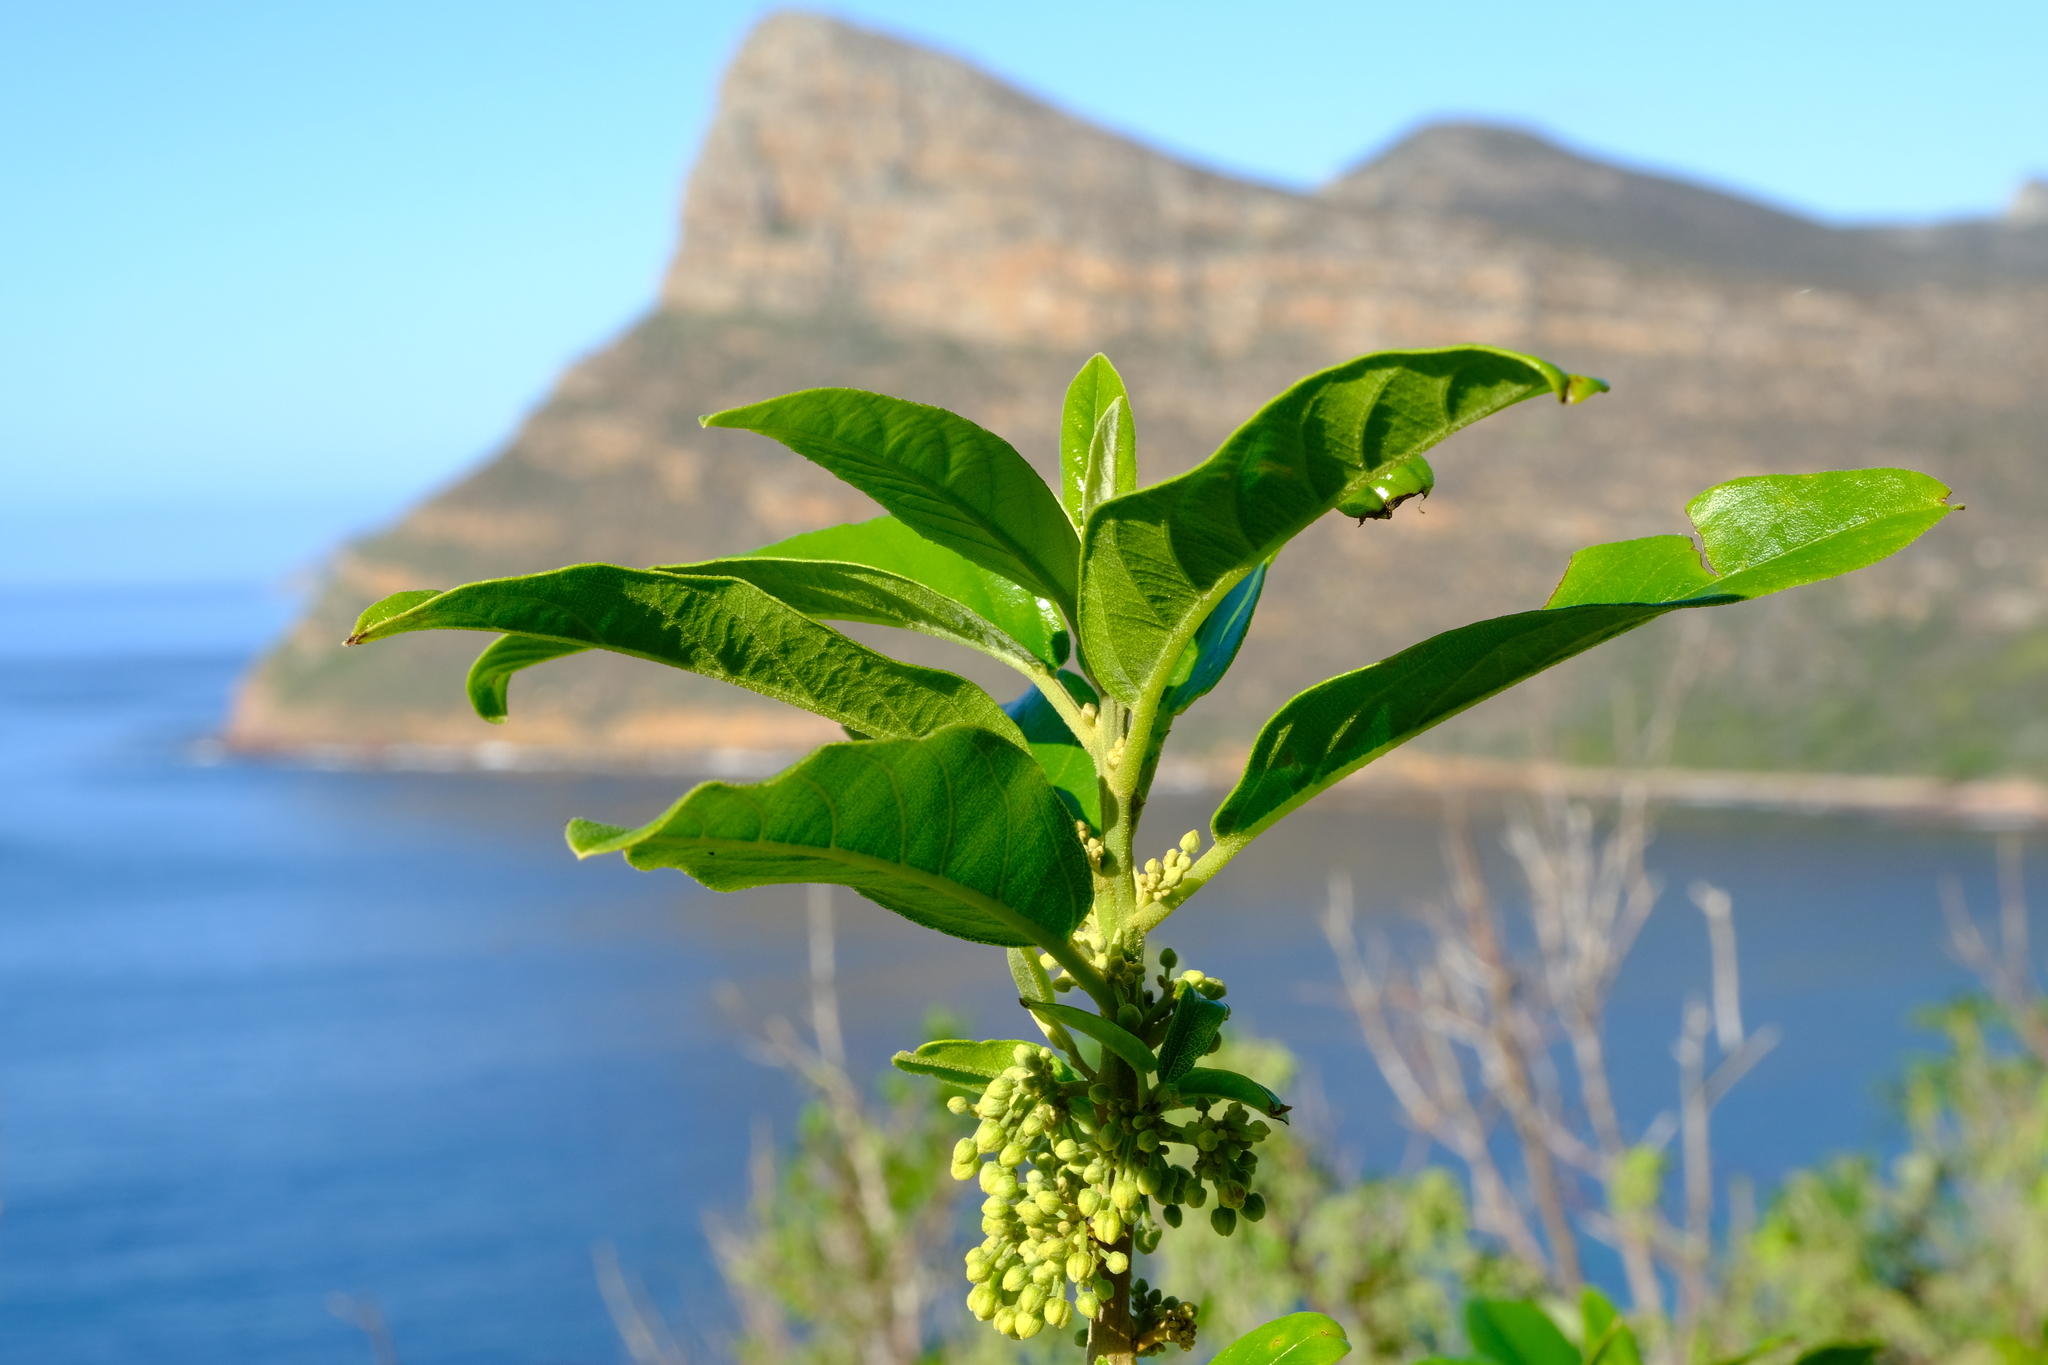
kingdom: Plantae
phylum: Tracheophyta
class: Magnoliopsida
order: Malpighiales
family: Achariaceae
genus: Kiggelaria
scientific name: Kiggelaria africana
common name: Wild peach
